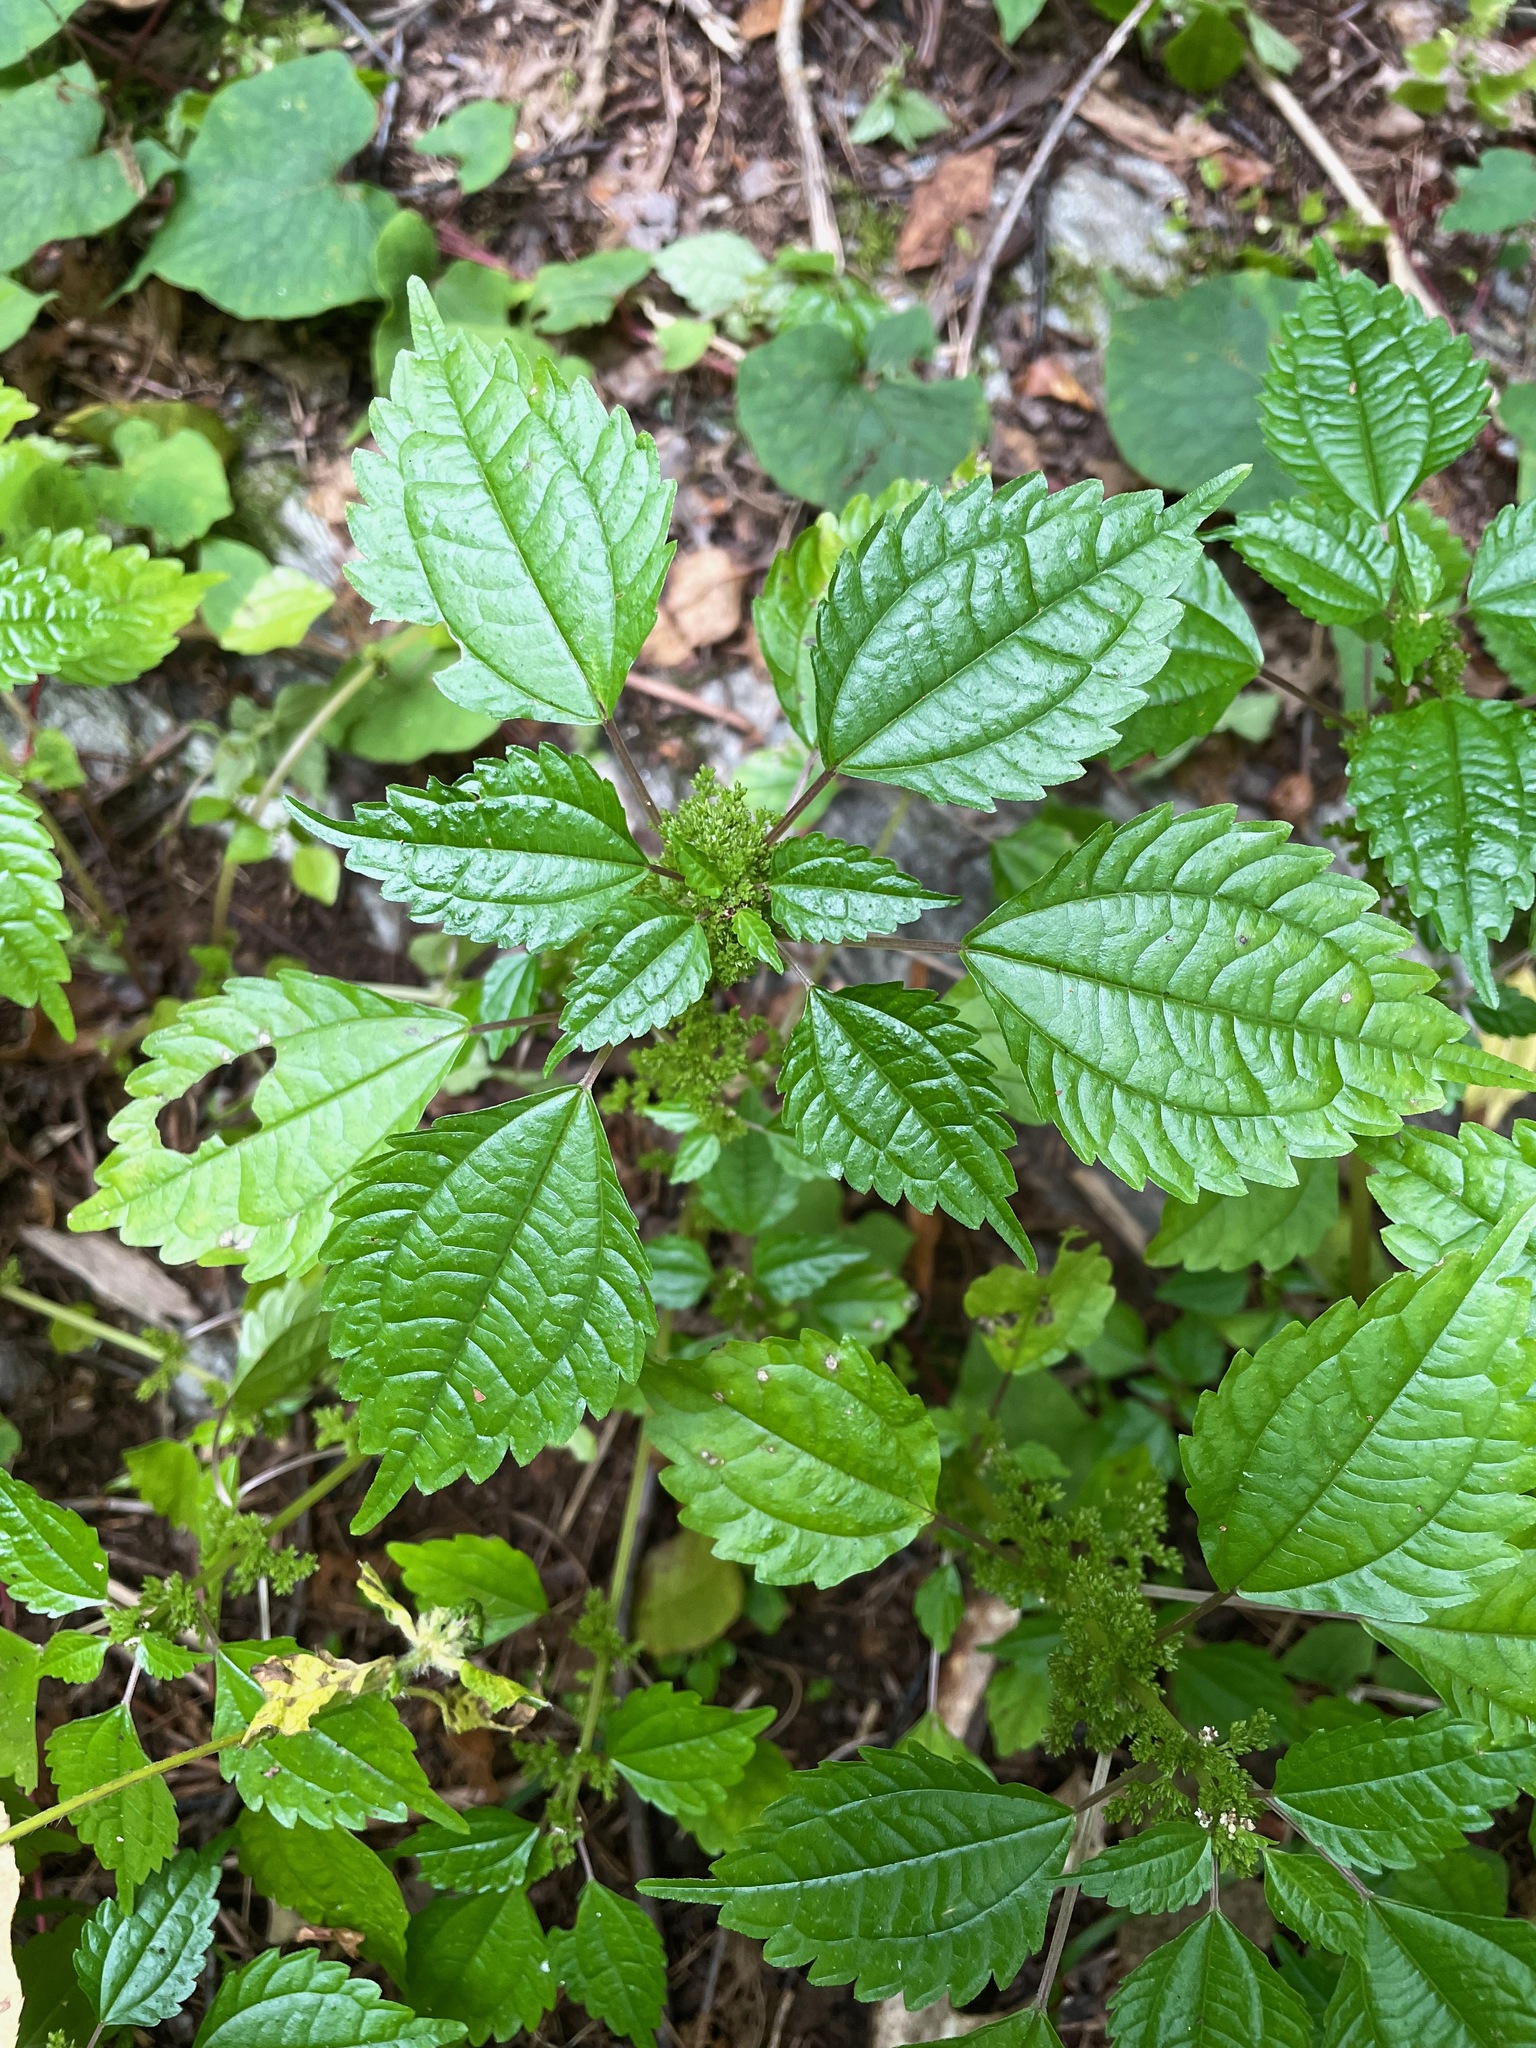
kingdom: Plantae
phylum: Tracheophyta
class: Magnoliopsida
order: Rosales
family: Urticaceae
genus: Pilea
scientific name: Pilea pumila
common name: Clearweed
